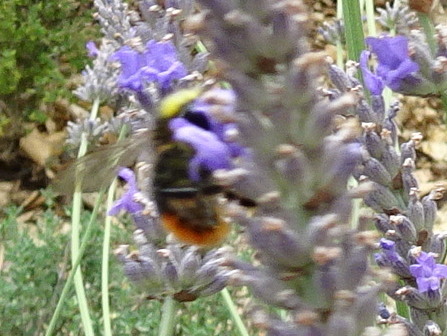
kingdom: Animalia
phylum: Arthropoda
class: Insecta
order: Hymenoptera
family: Apidae
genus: Bombus
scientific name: Bombus lapidarius
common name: Large red-tailed humble-bee
